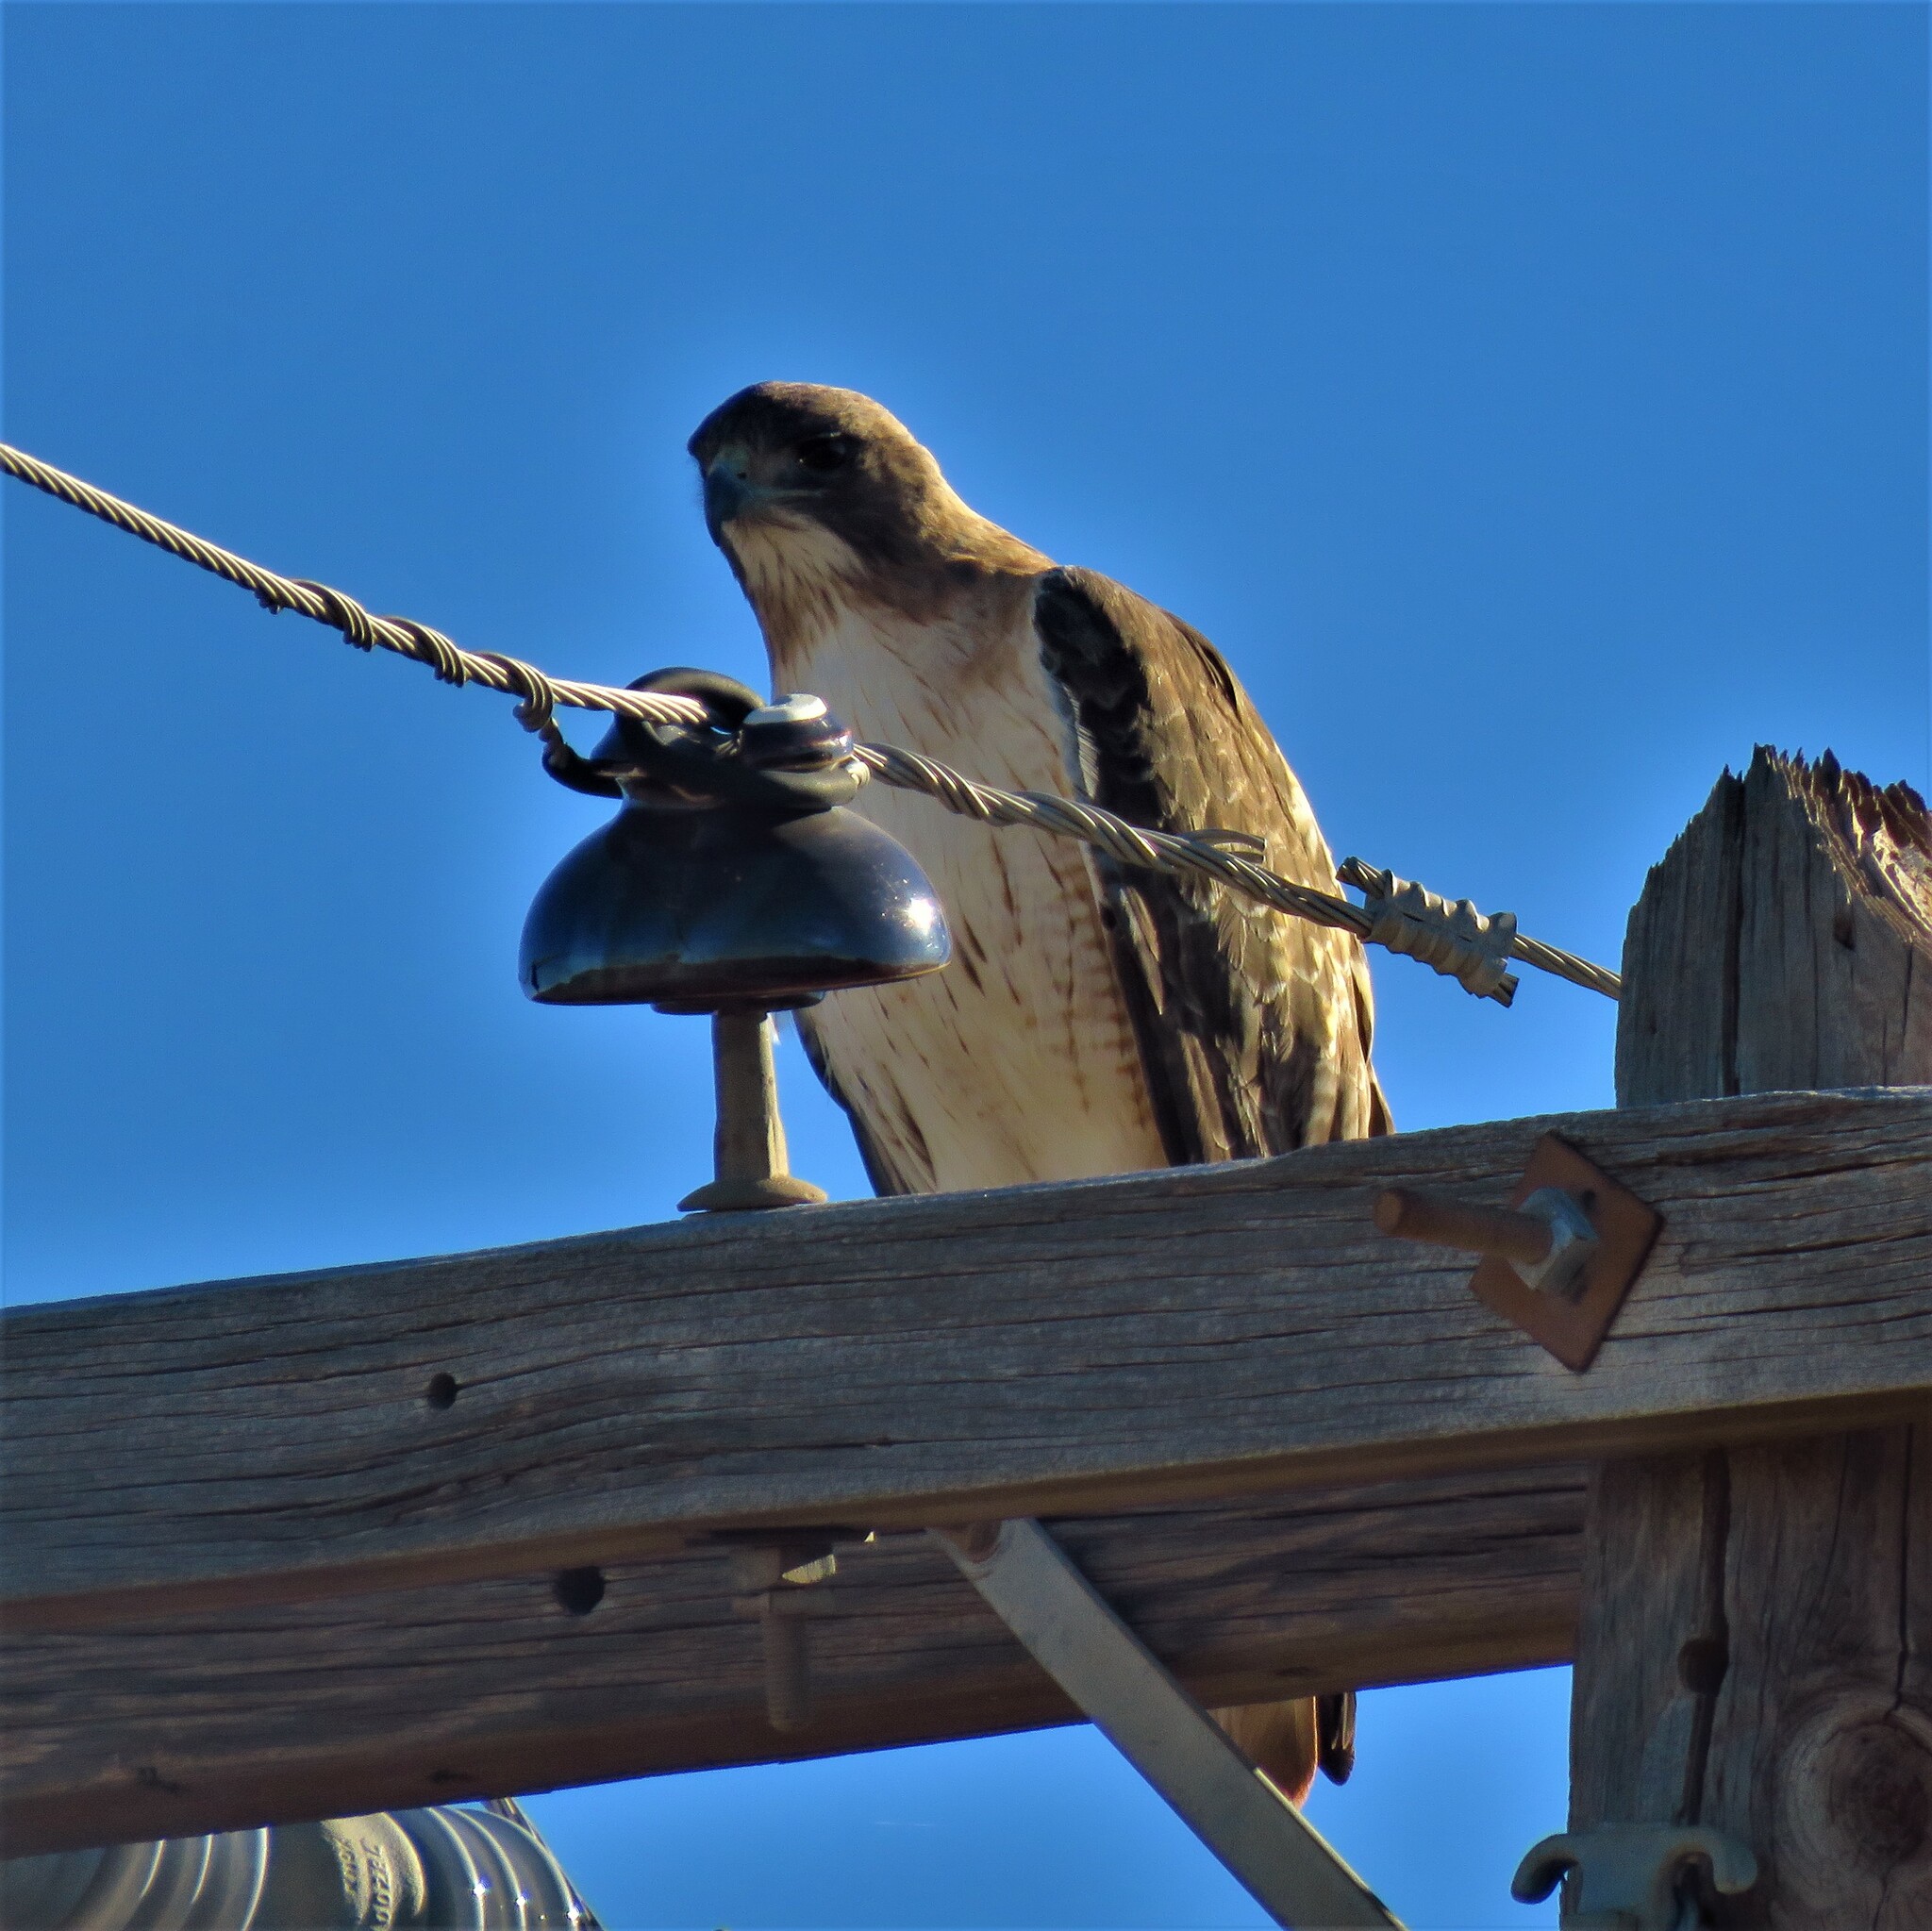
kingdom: Animalia
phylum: Chordata
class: Aves
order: Accipitriformes
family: Accipitridae
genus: Buteo
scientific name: Buteo jamaicensis
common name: Red-tailed hawk
